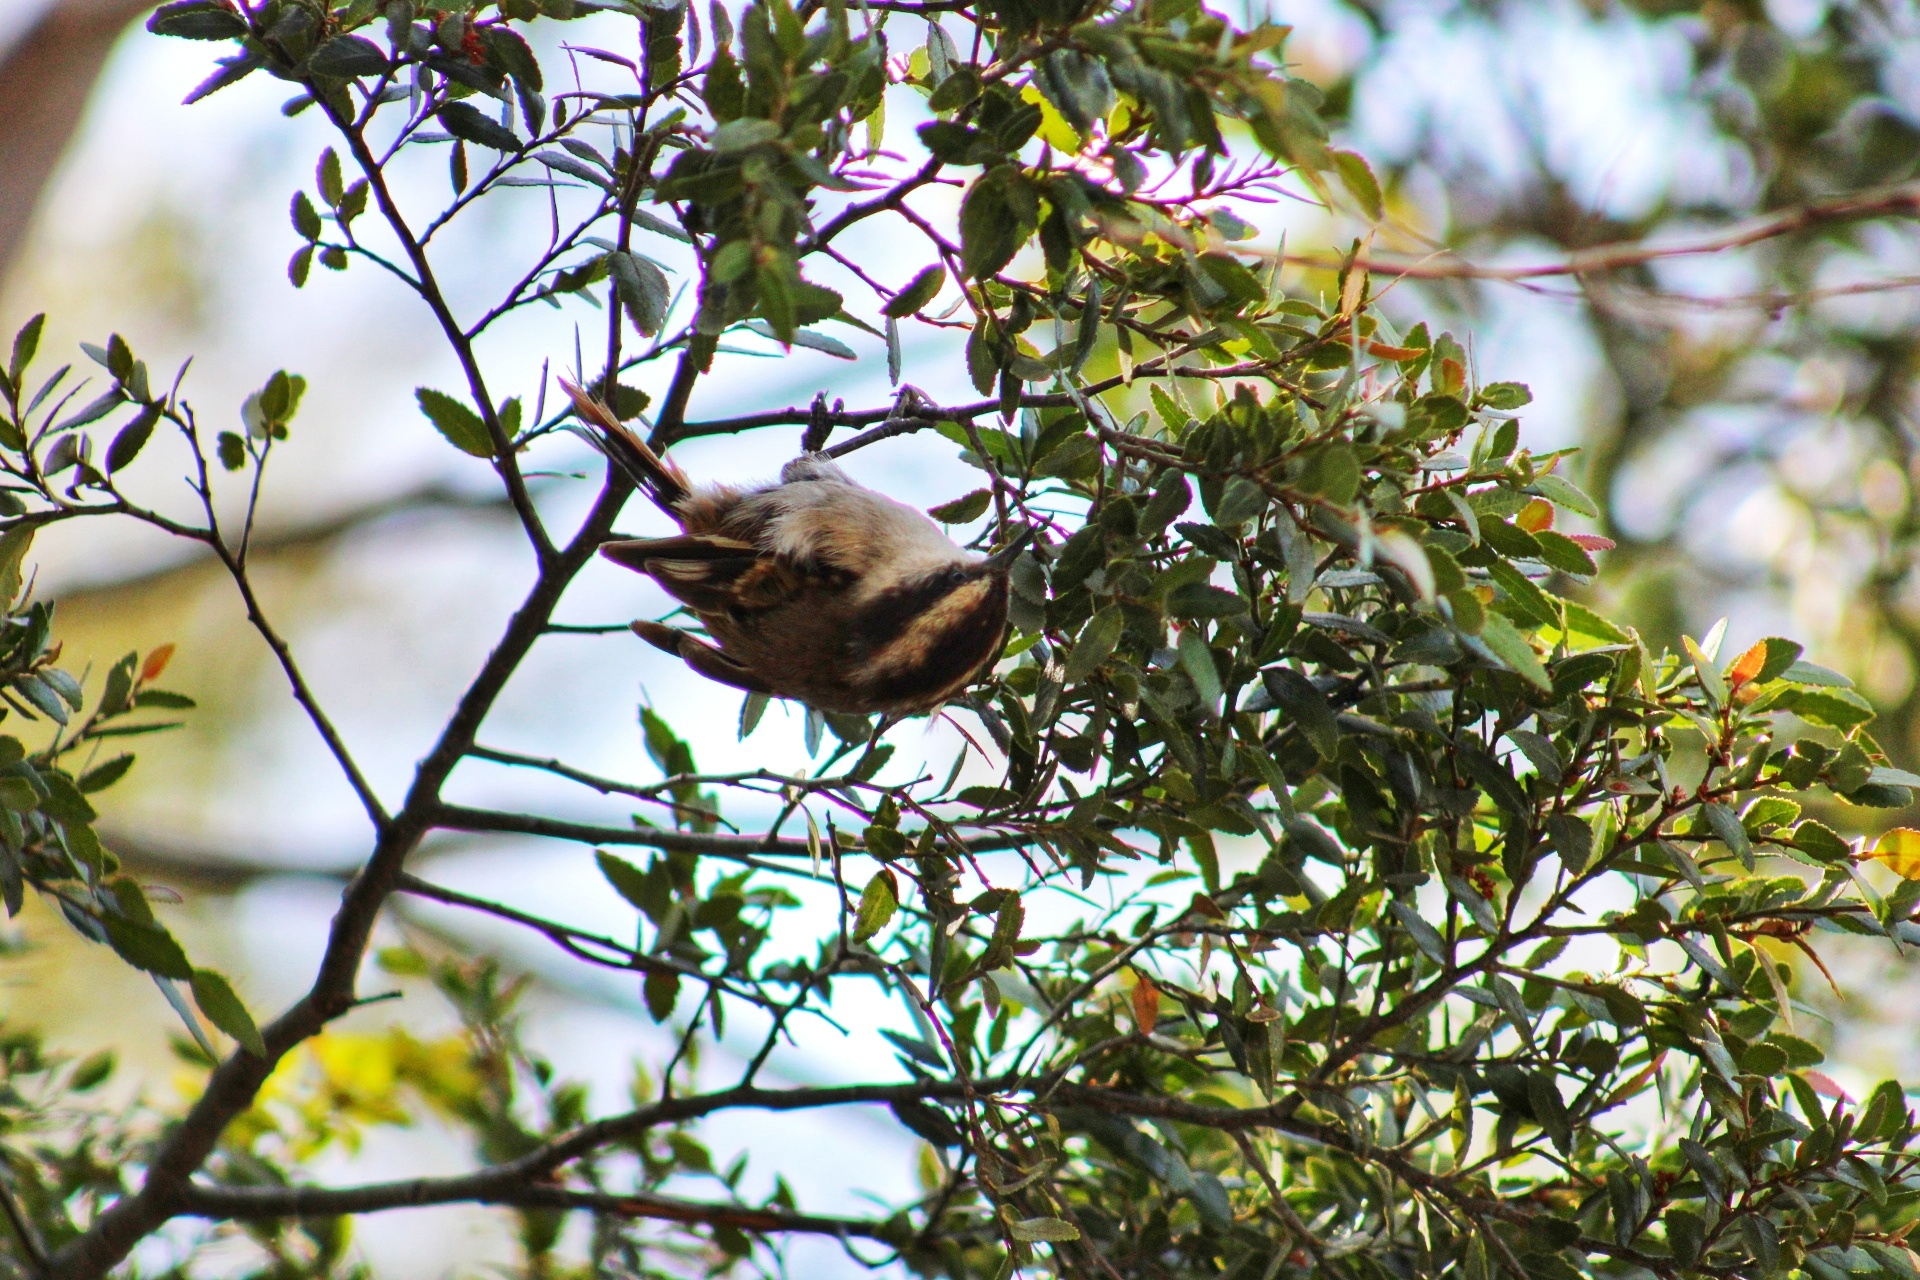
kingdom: Animalia
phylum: Chordata
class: Aves
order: Passeriformes
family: Furnariidae
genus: Aphrastura
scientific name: Aphrastura spinicauda
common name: Thorn-tailed rayadito
